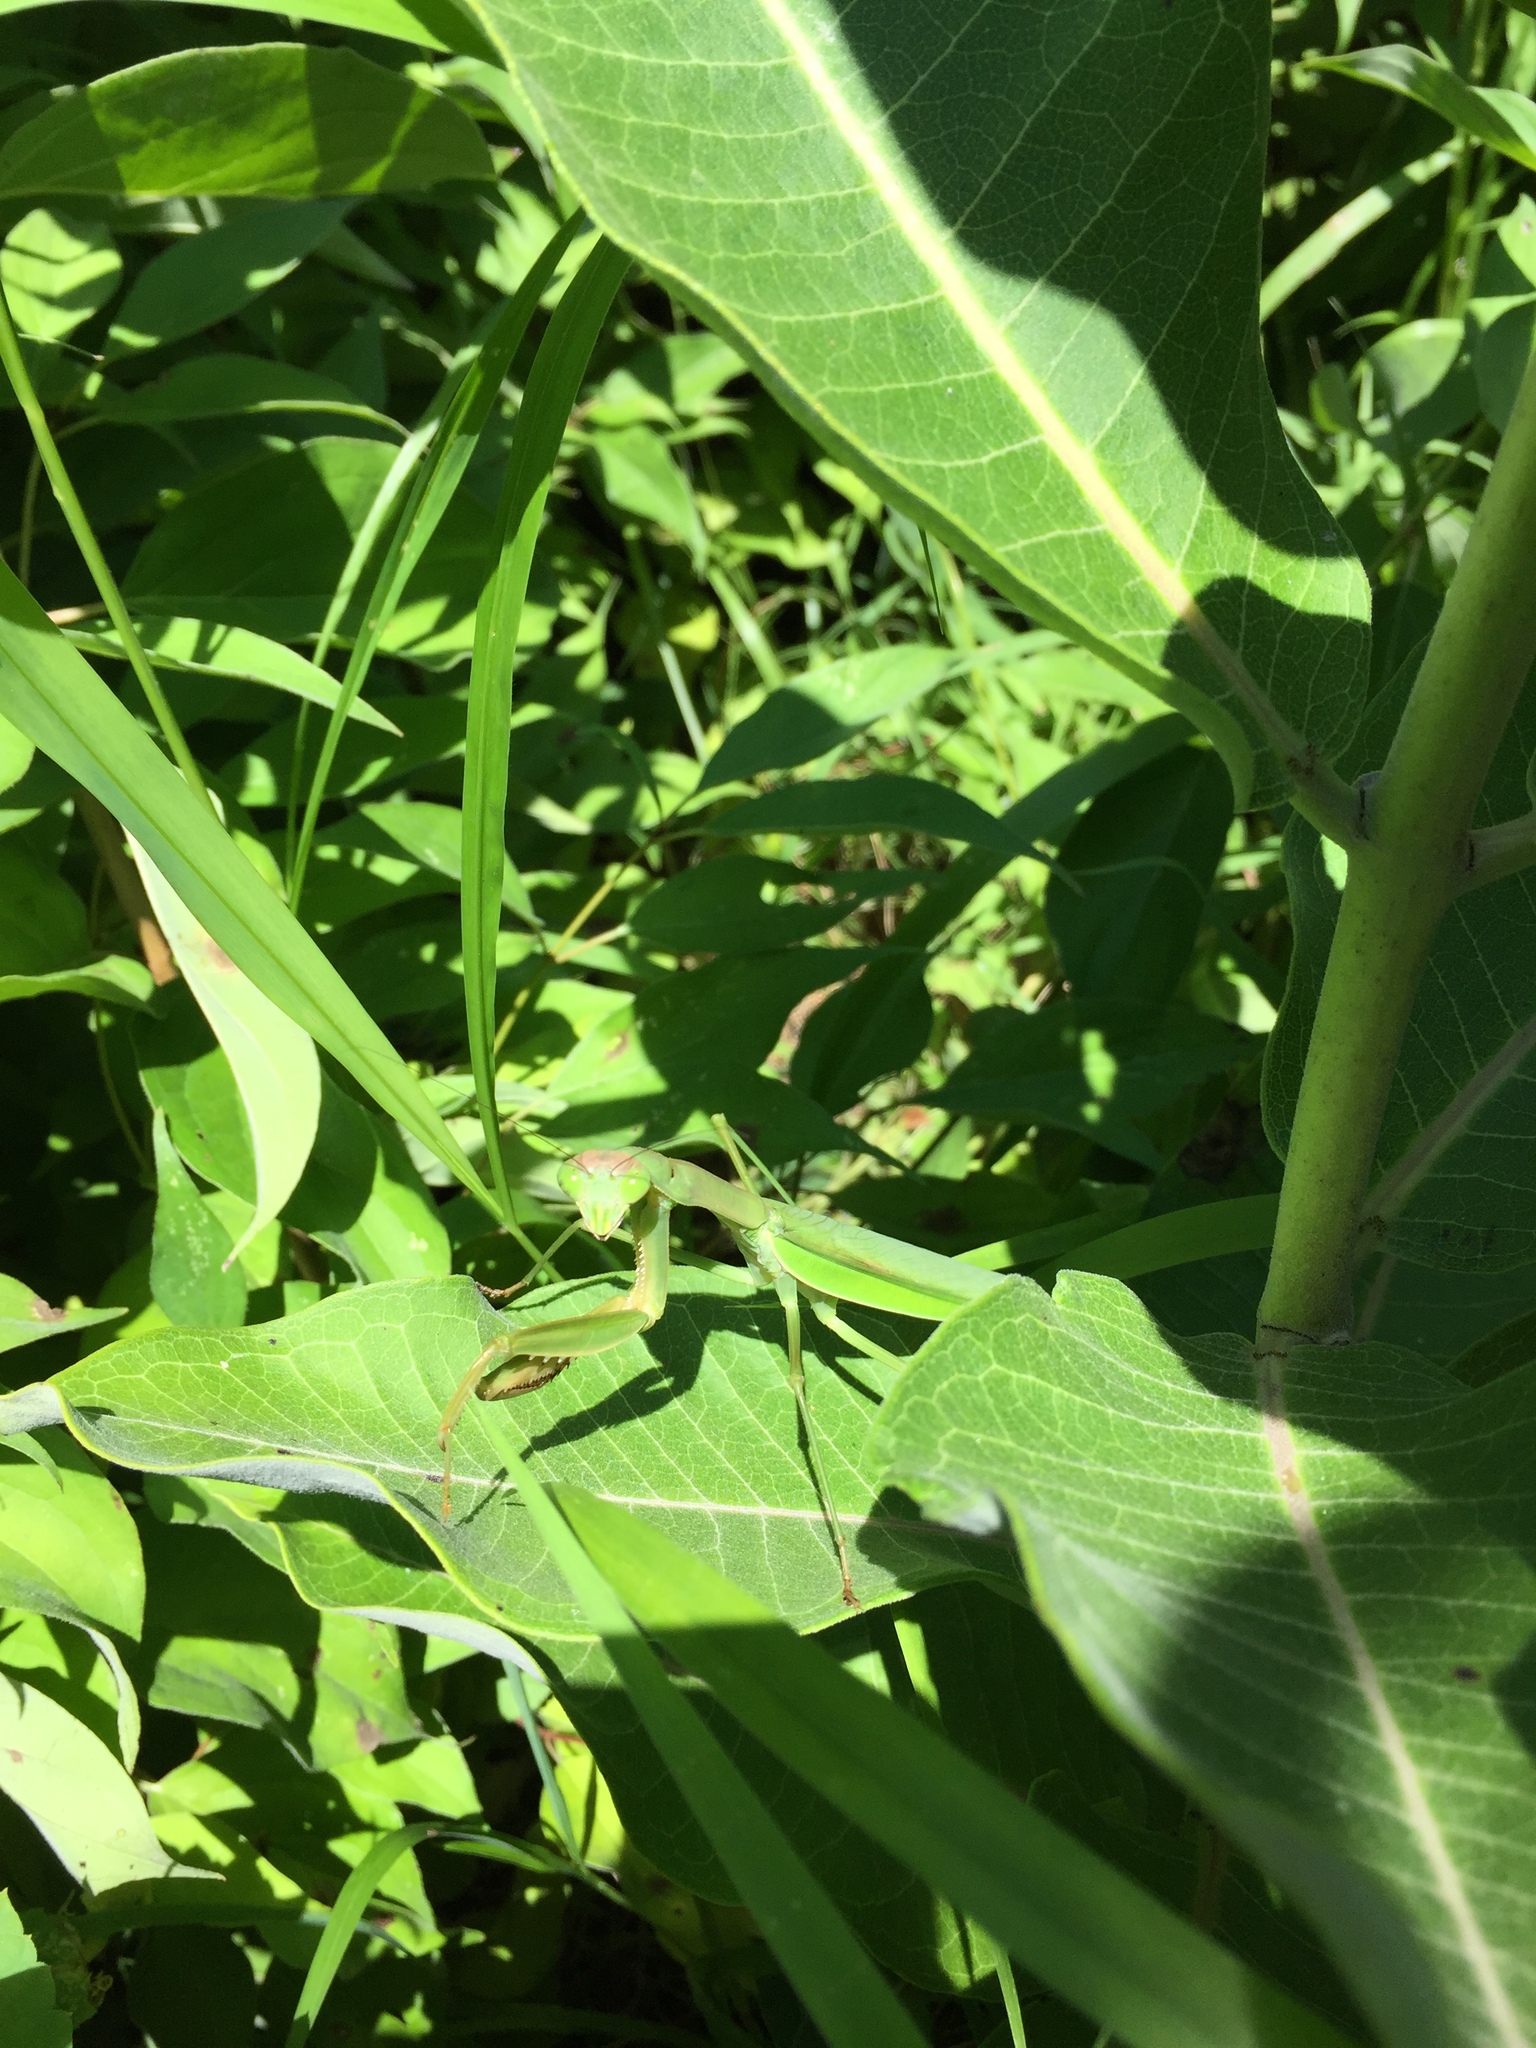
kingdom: Animalia
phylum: Arthropoda
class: Insecta
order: Mantodea
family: Mantidae
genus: Tenodera
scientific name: Tenodera sinensis
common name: Chinese mantis
